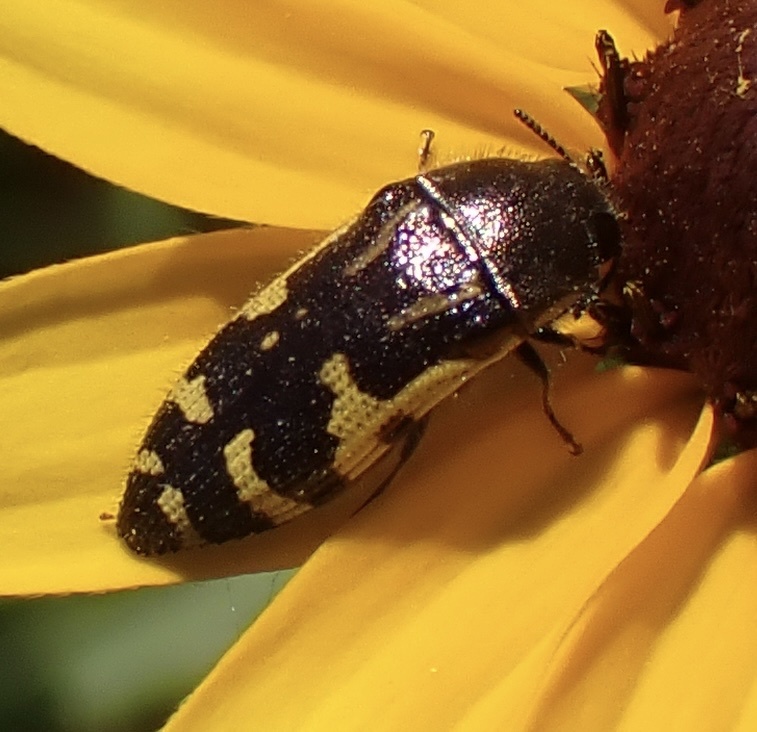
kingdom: Animalia
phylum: Arthropoda
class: Insecta
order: Coleoptera
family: Buprestidae
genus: Acmaeodera
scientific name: Acmaeodera pulchella
